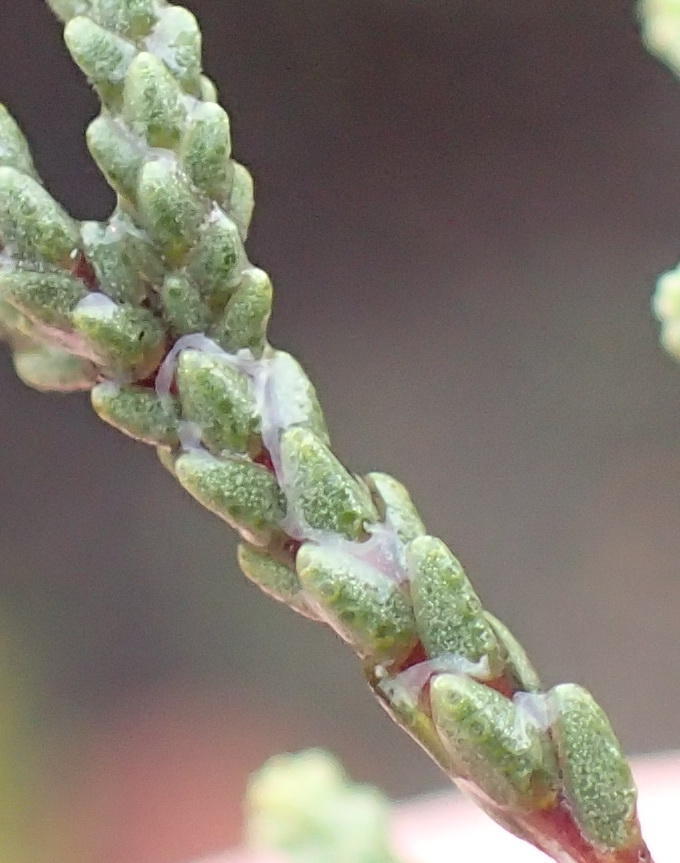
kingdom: Plantae
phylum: Tracheophyta
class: Magnoliopsida
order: Sapindales
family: Rutaceae
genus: Diosma
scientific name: Diosma prama
